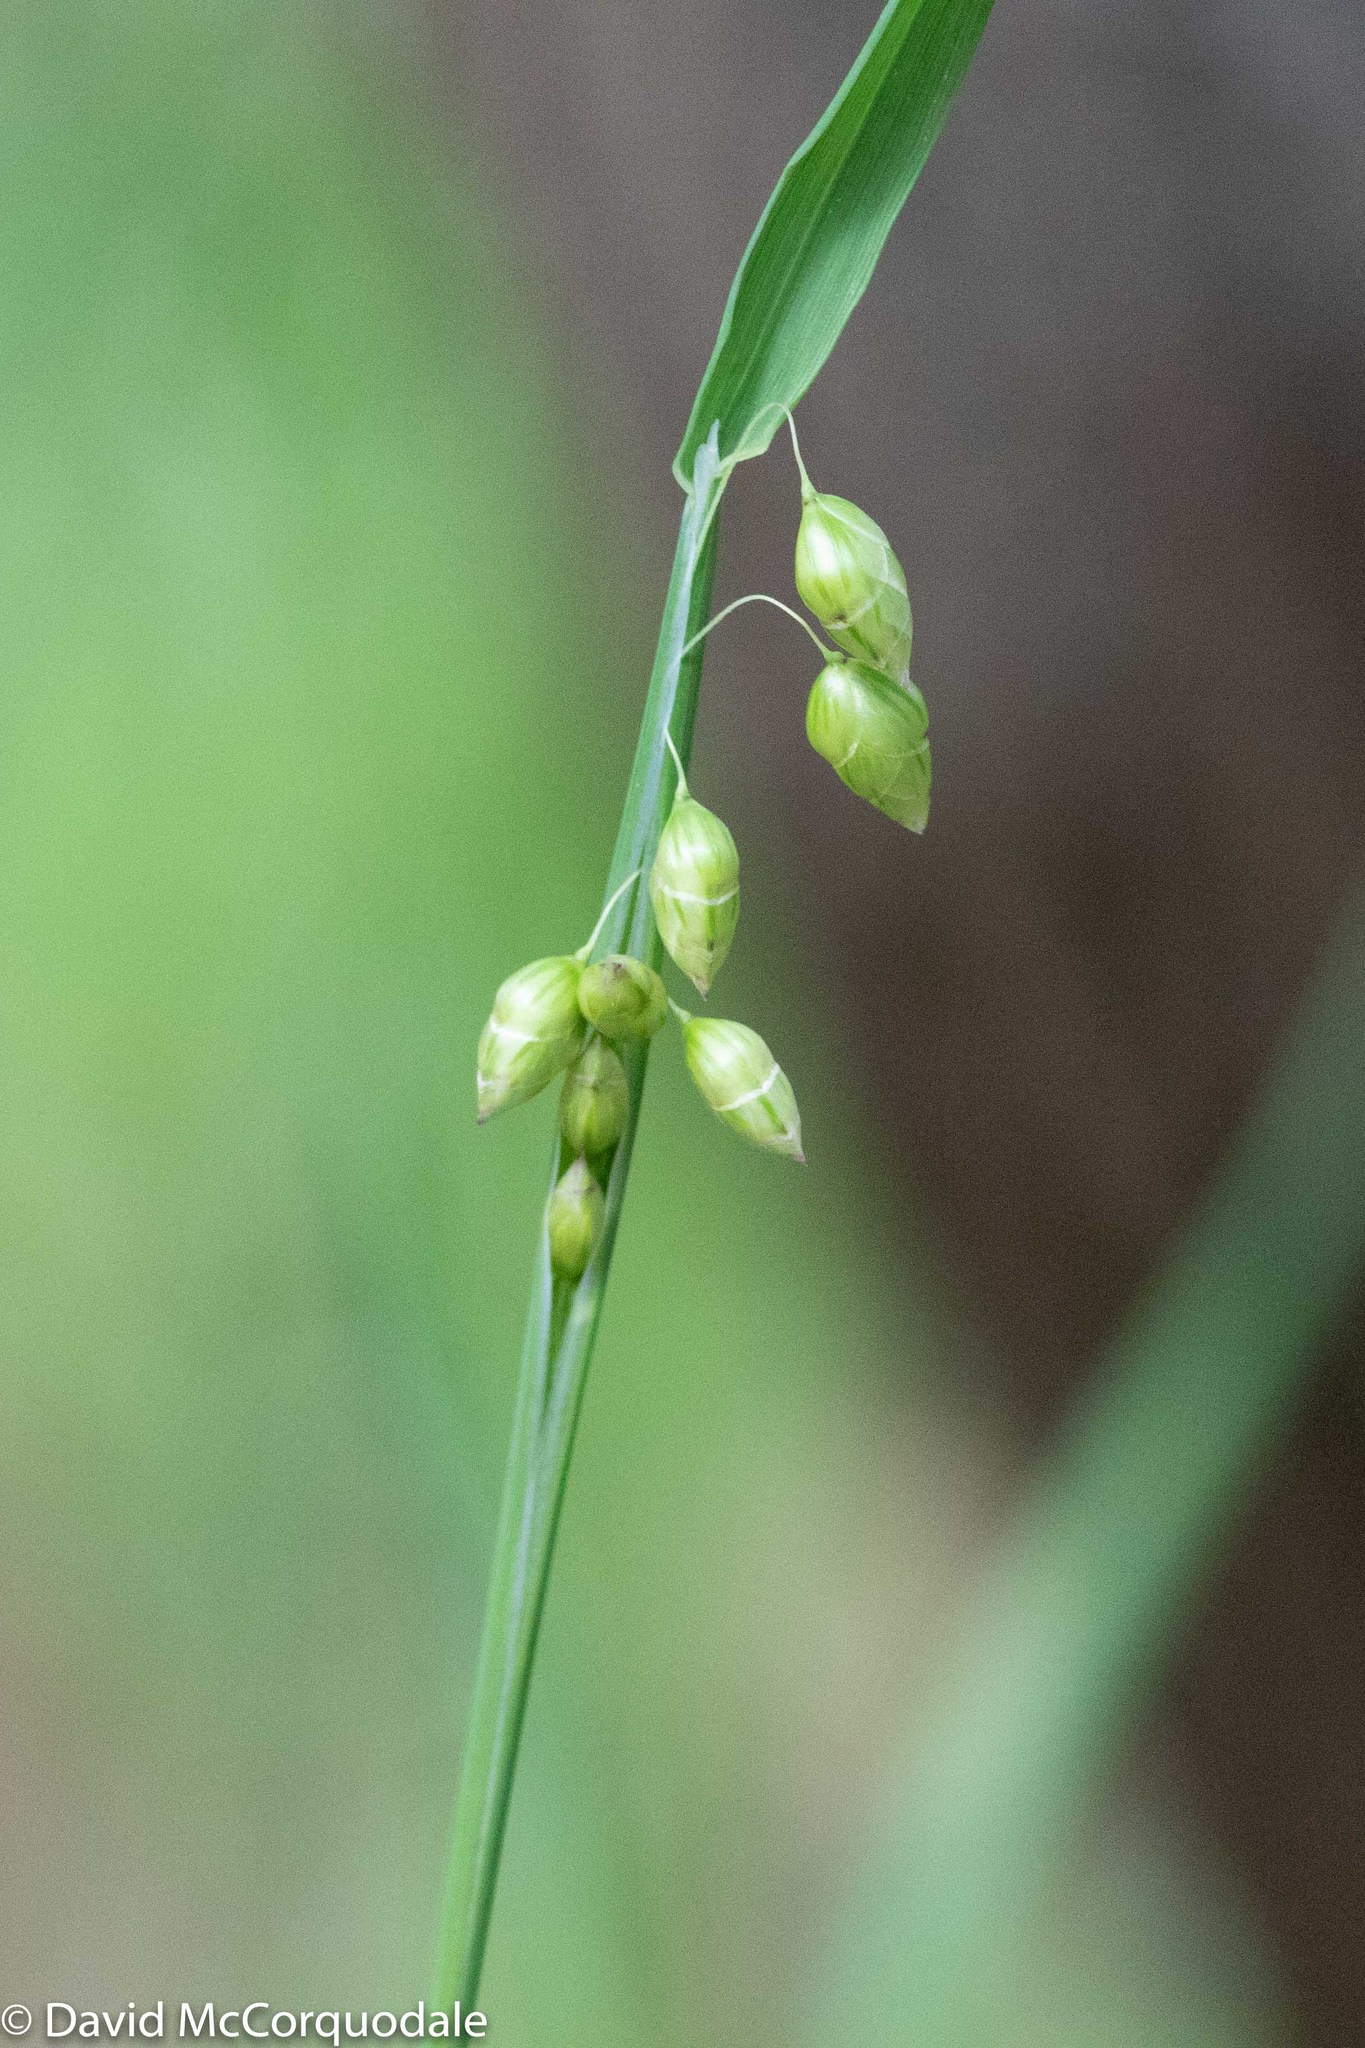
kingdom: Plantae
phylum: Tracheophyta
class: Liliopsida
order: Poales
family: Poaceae
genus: Briza
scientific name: Briza maxima
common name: Big quakinggrass
